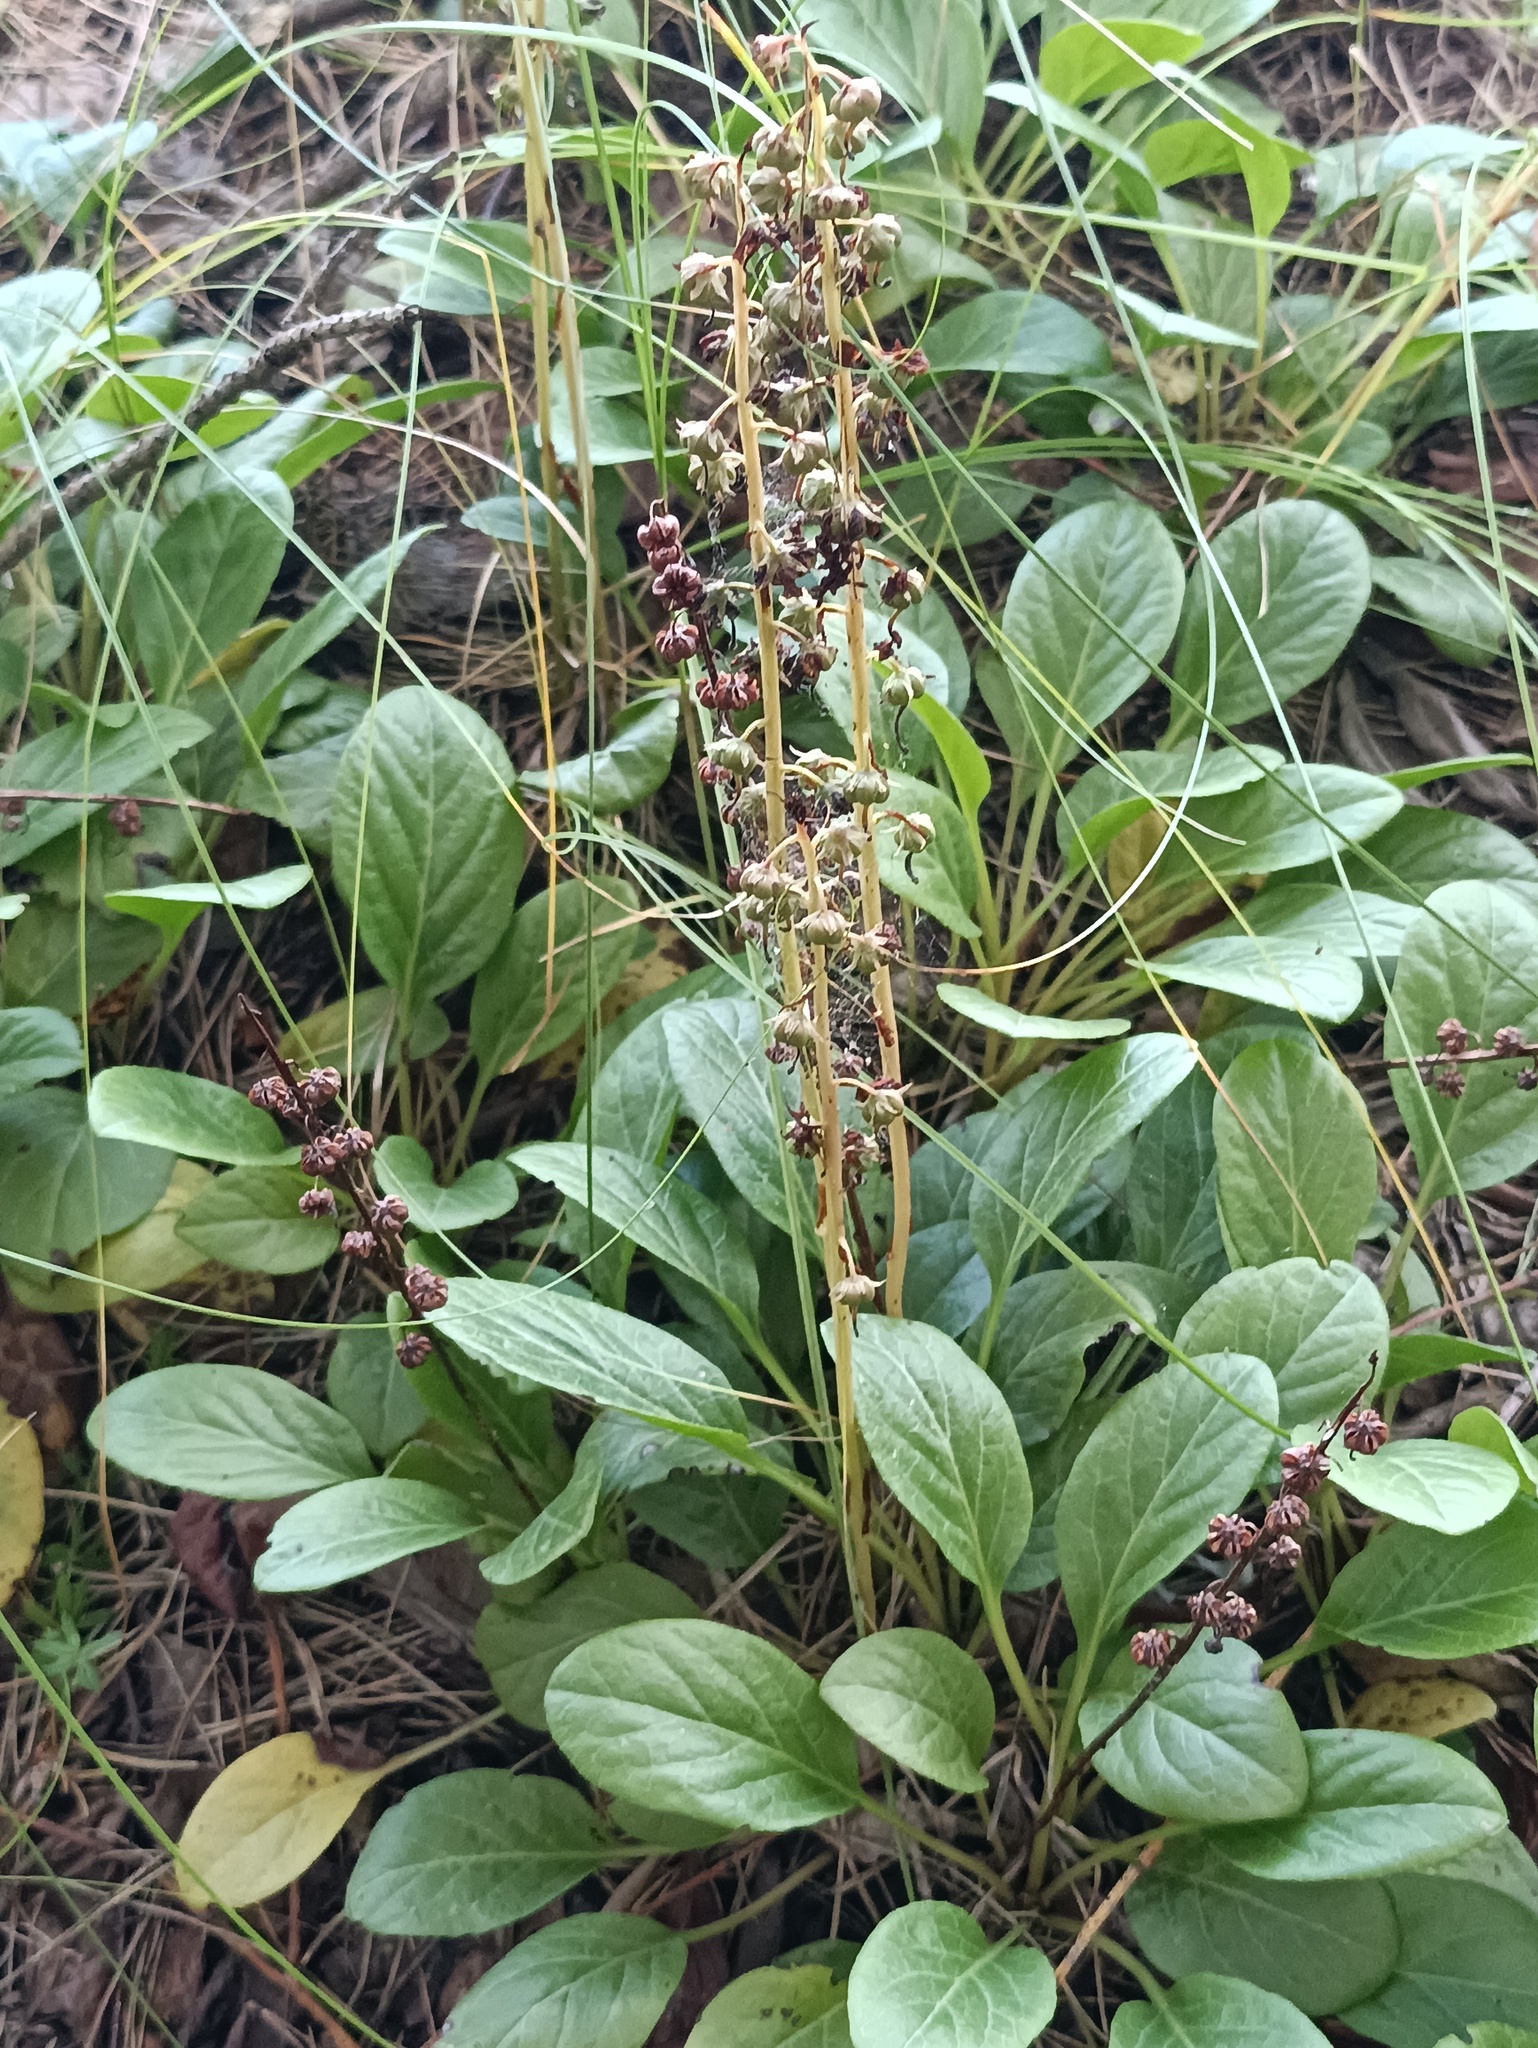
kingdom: Plantae
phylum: Tracheophyta
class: Magnoliopsida
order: Ericales
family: Ericaceae
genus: Pyrola
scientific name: Pyrola rotundifolia
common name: Round-leaved wintergreen
